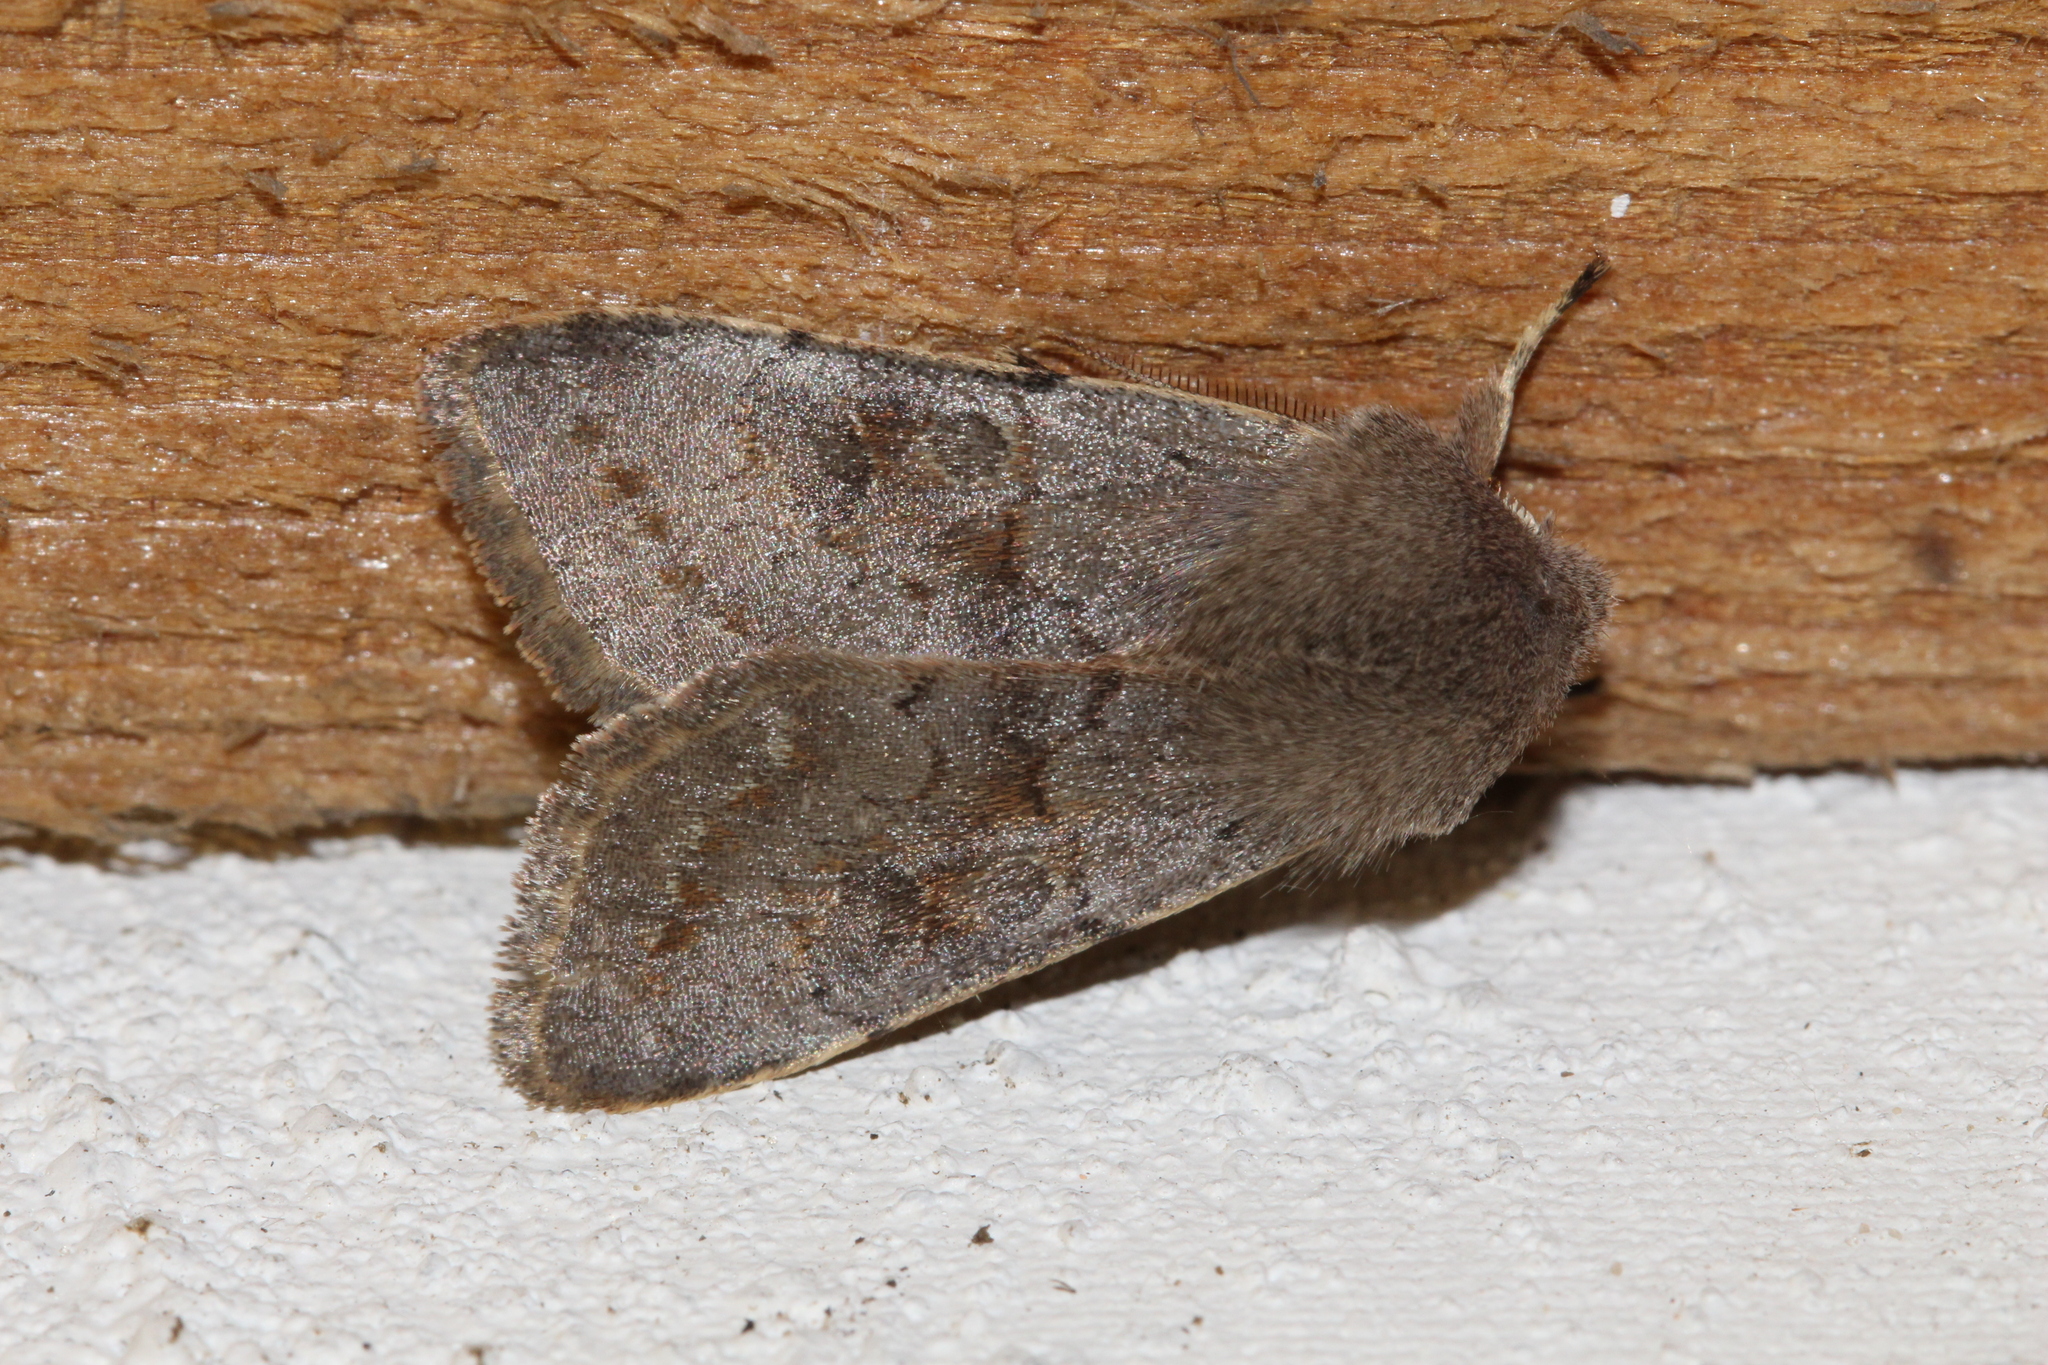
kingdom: Animalia
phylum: Arthropoda
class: Insecta
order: Lepidoptera
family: Noctuidae
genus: Orthosia
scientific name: Orthosia populeti
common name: Lead-coloured drab
